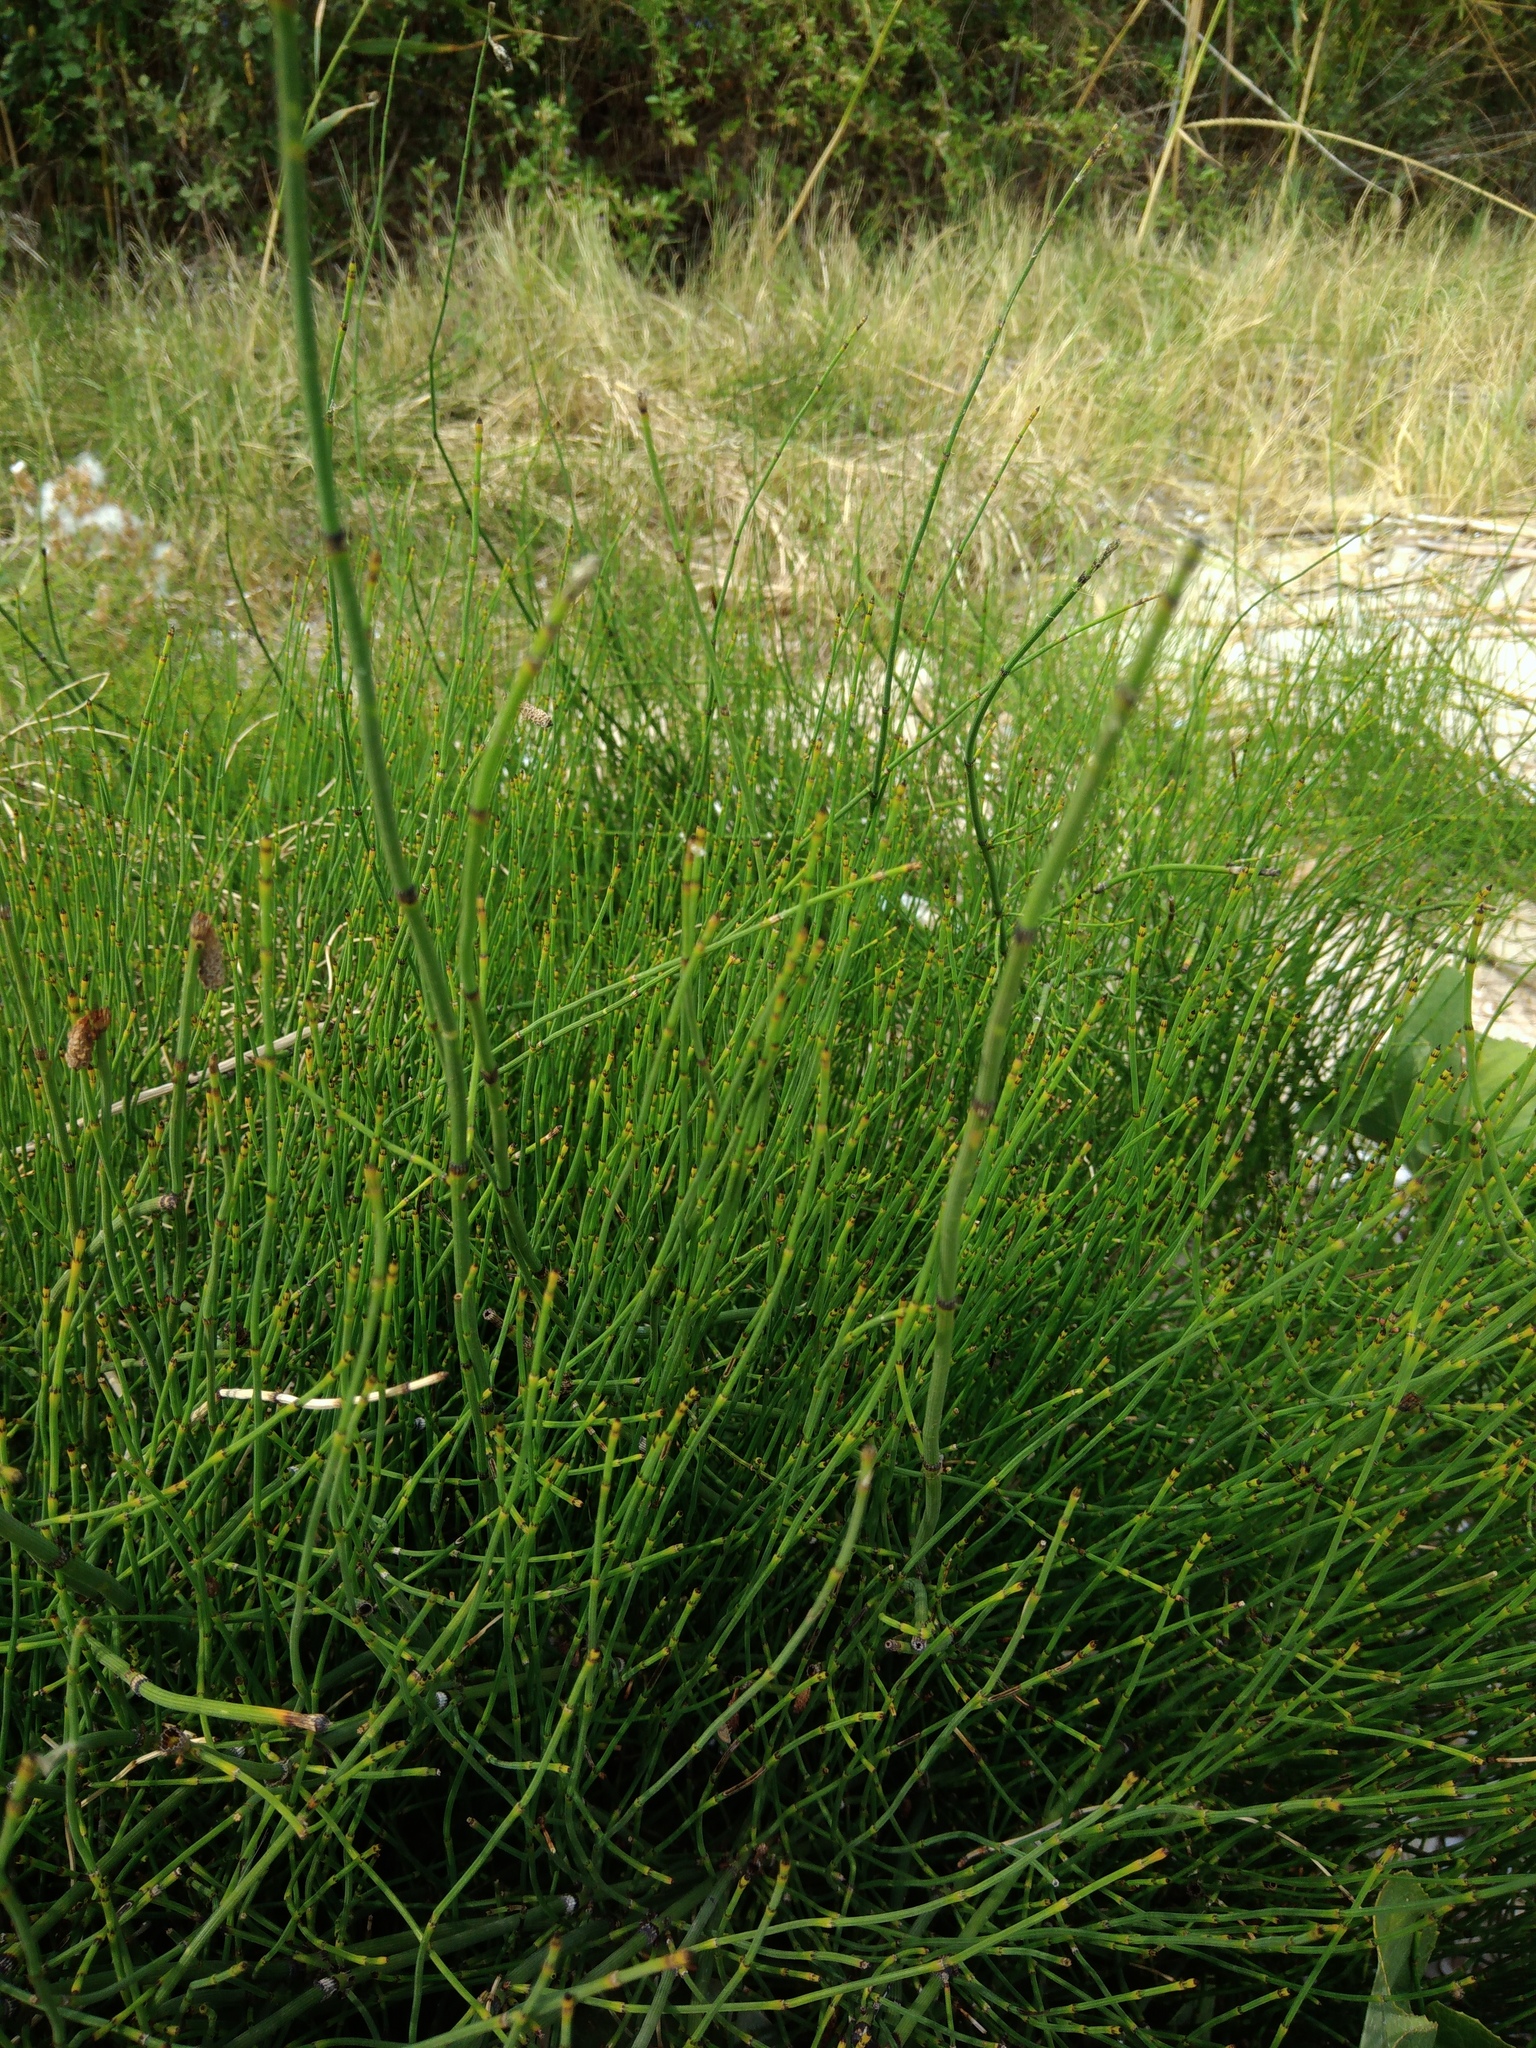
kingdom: Plantae
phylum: Tracheophyta
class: Polypodiopsida
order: Equisetales
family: Equisetaceae
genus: Equisetum
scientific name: Equisetum ramosissimum
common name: Branched horsetail
